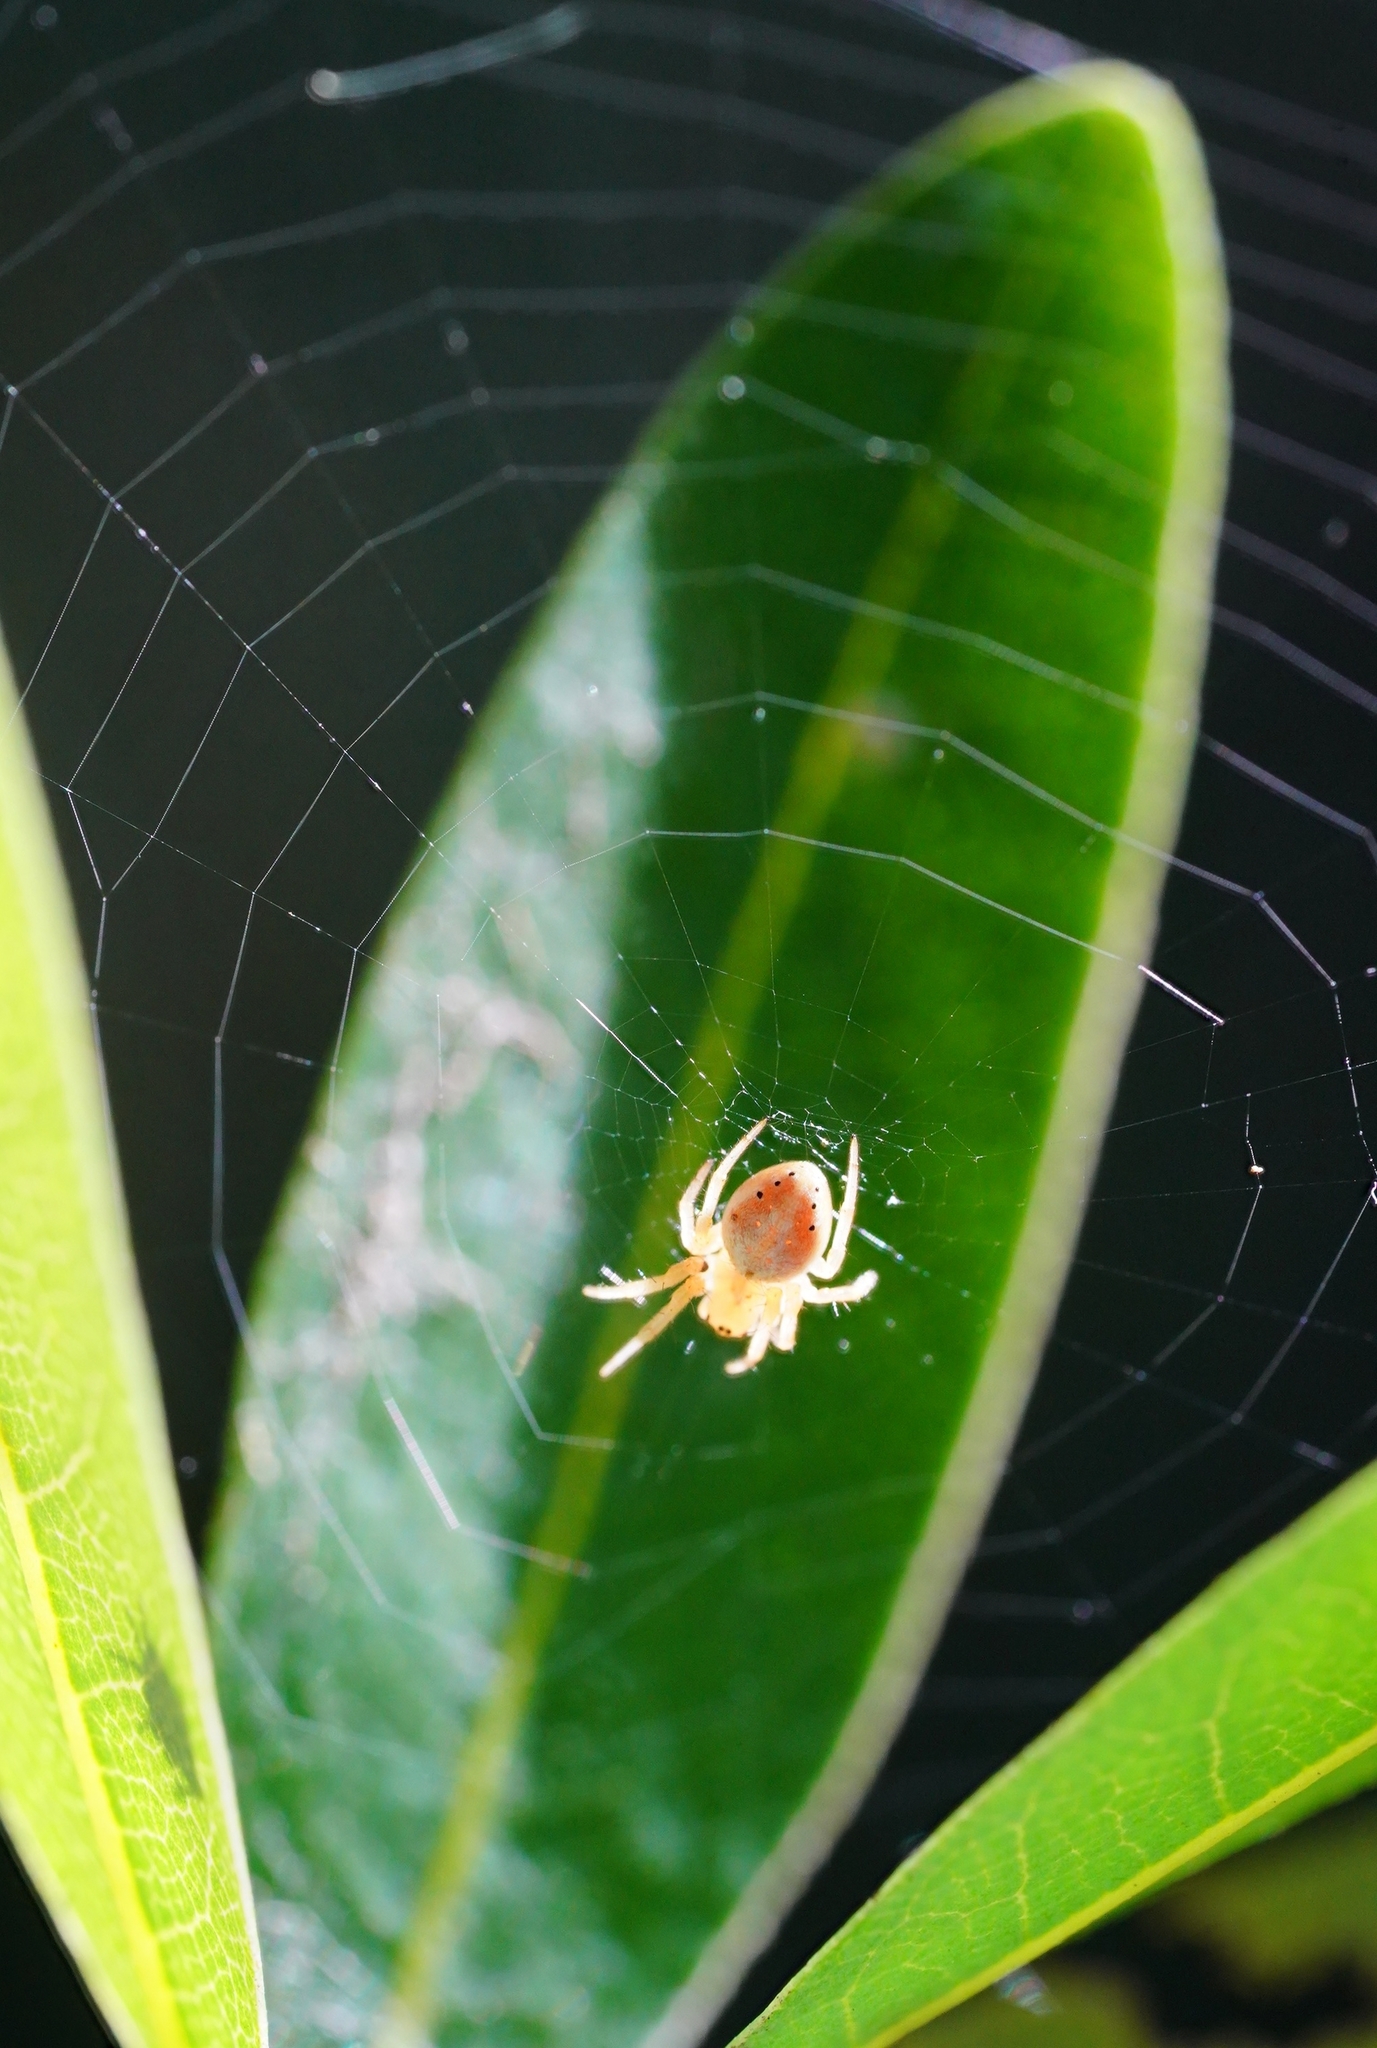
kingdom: Animalia
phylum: Arthropoda
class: Arachnida
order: Araneae
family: Araneidae
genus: Araniella
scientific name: Araniella displicata
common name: Sixspotted orb weaver
